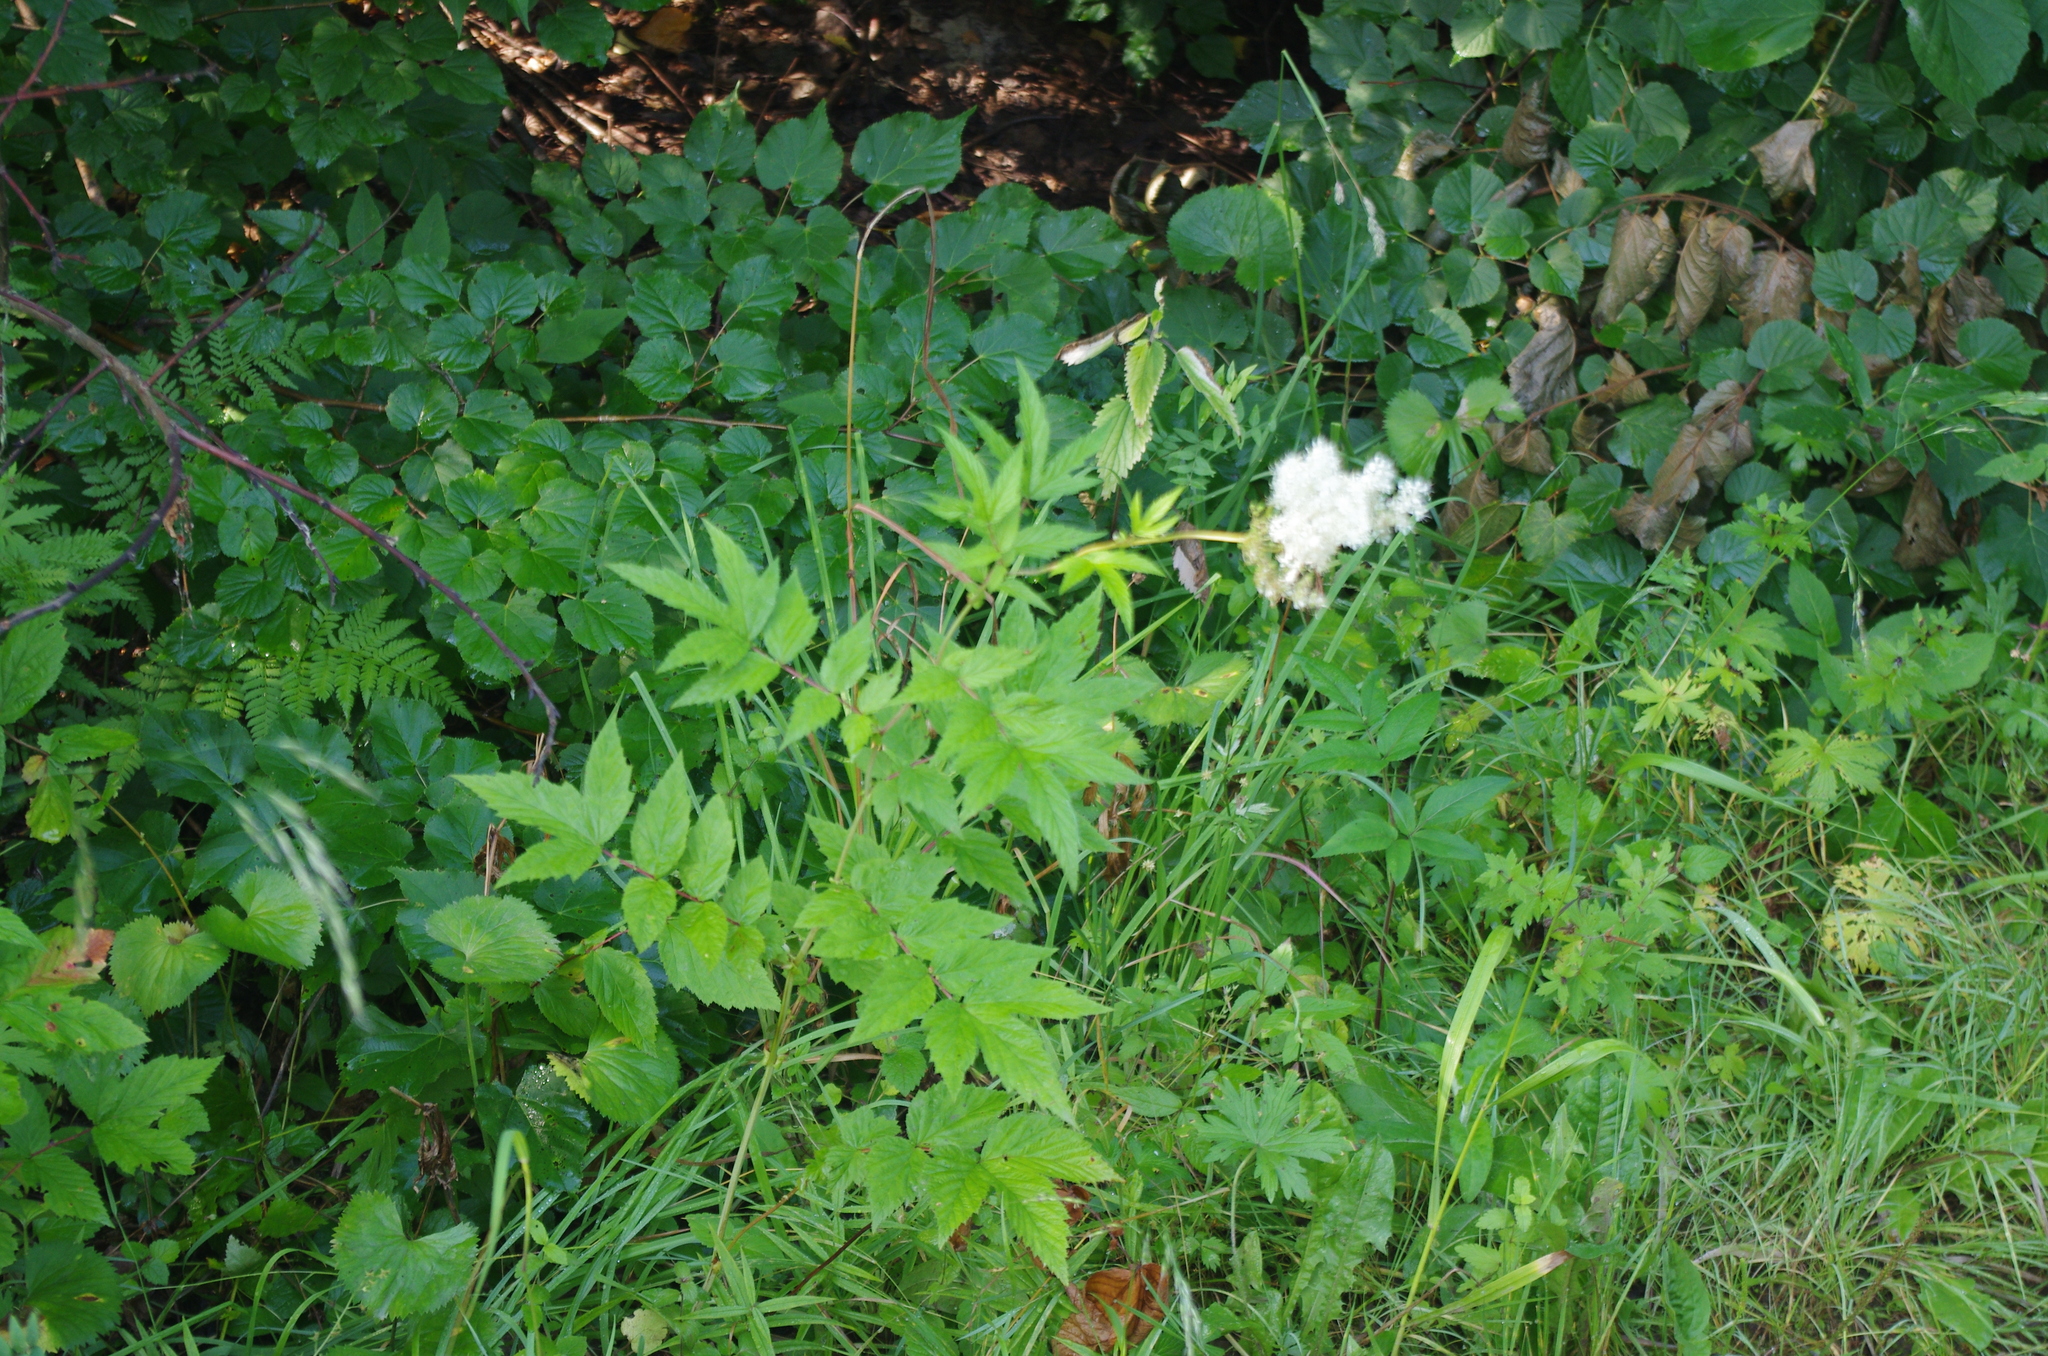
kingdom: Plantae
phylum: Tracheophyta
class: Magnoliopsida
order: Rosales
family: Rosaceae
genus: Filipendula
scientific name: Filipendula ulmaria
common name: Meadowsweet
